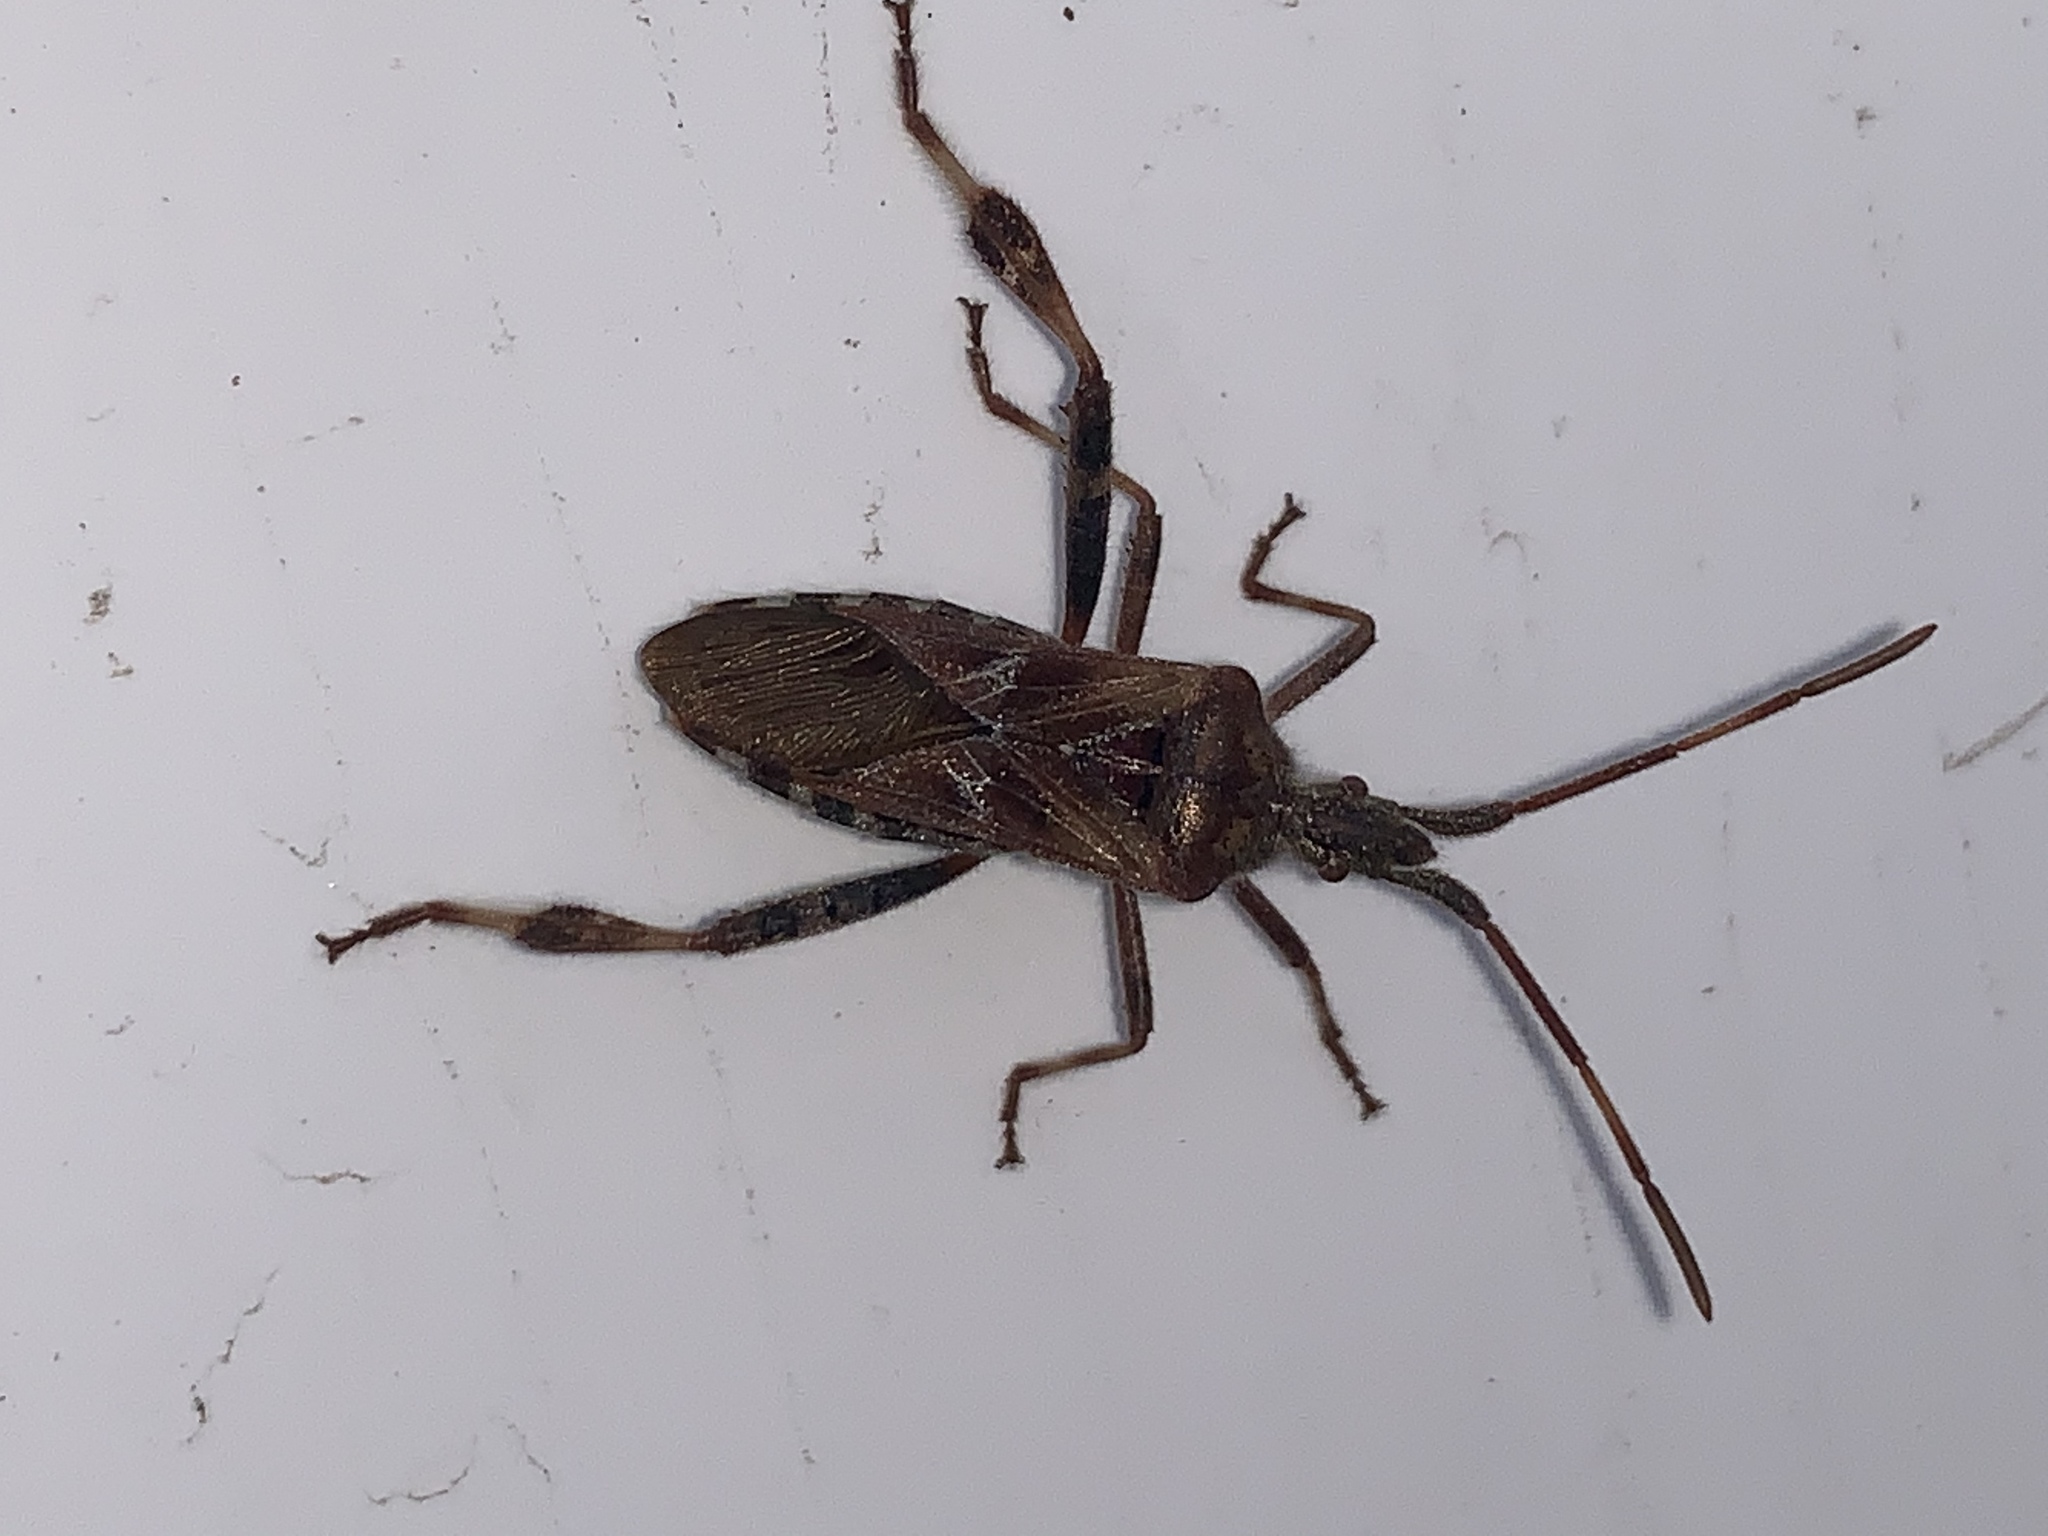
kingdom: Animalia
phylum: Arthropoda
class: Insecta
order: Hemiptera
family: Coreidae
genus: Leptoglossus
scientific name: Leptoglossus occidentalis
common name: Western conifer-seed bug
